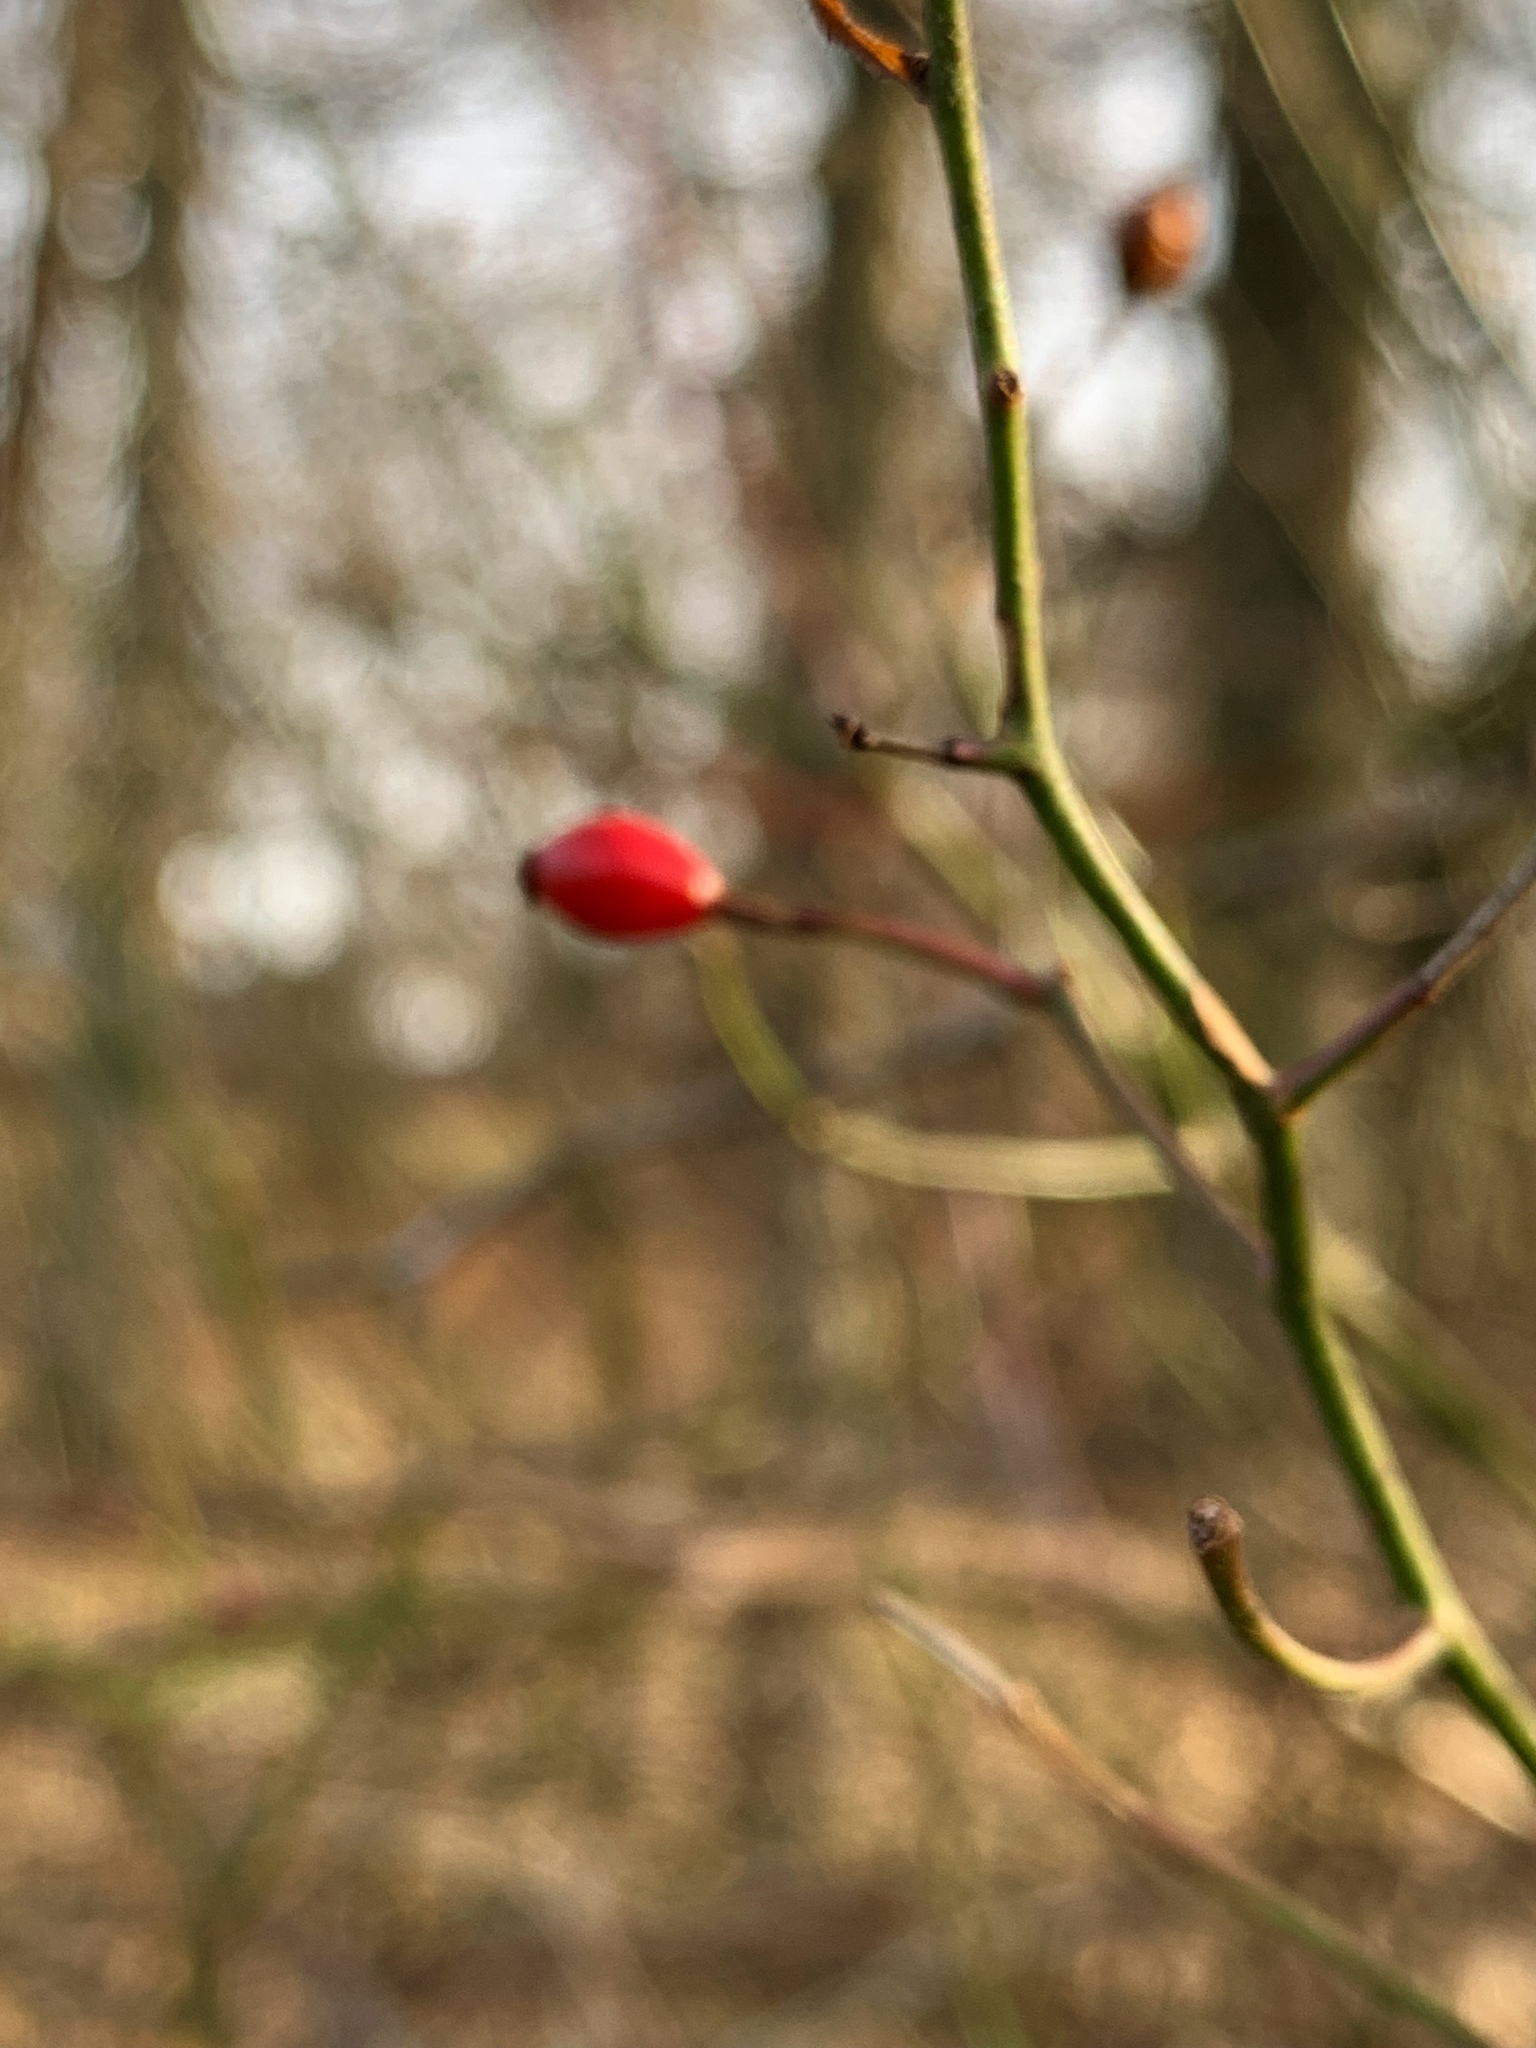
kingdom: Plantae
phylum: Tracheophyta
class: Magnoliopsida
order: Rosales
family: Rosaceae
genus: Rosa
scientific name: Rosa multiflora
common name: Multiflora rose
